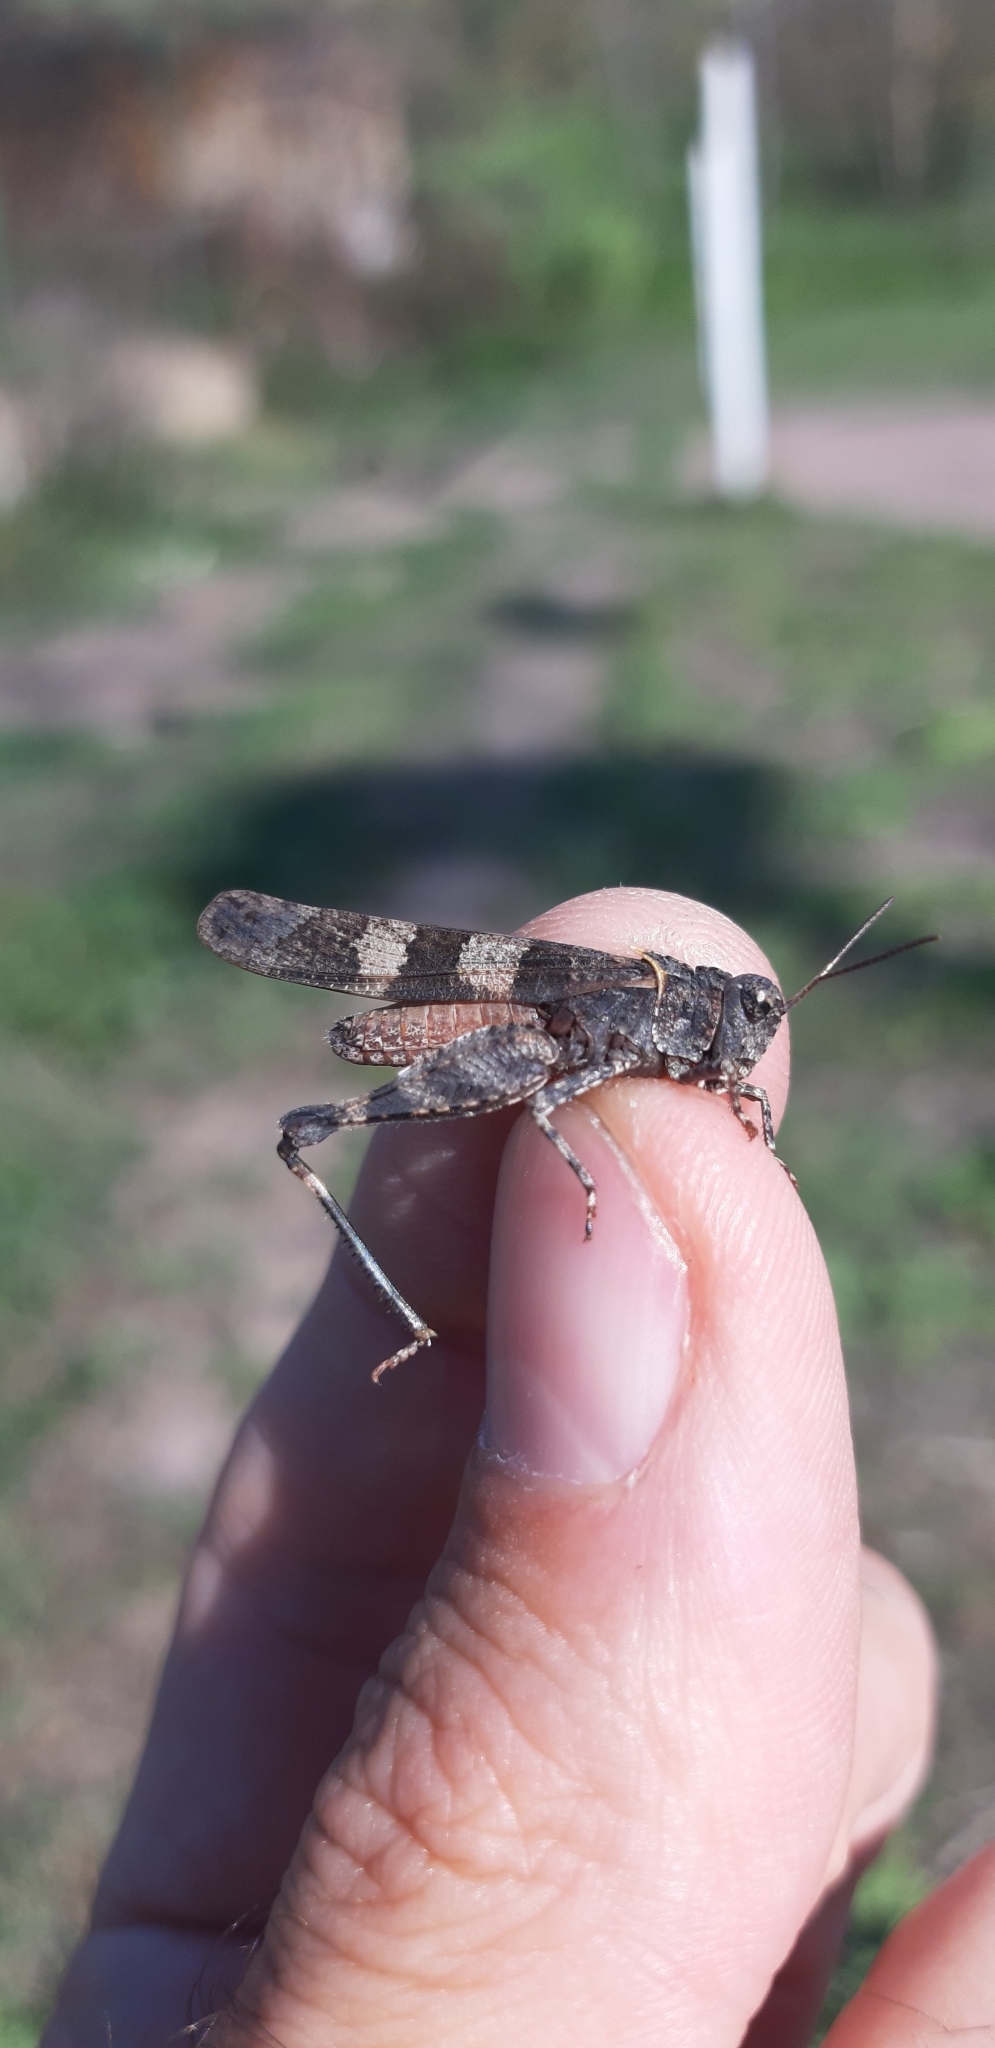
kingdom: Animalia
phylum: Arthropoda
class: Insecta
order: Orthoptera
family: Acrididae
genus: Oedipoda
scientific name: Oedipoda caerulescens
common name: Blue-winged grasshopper
